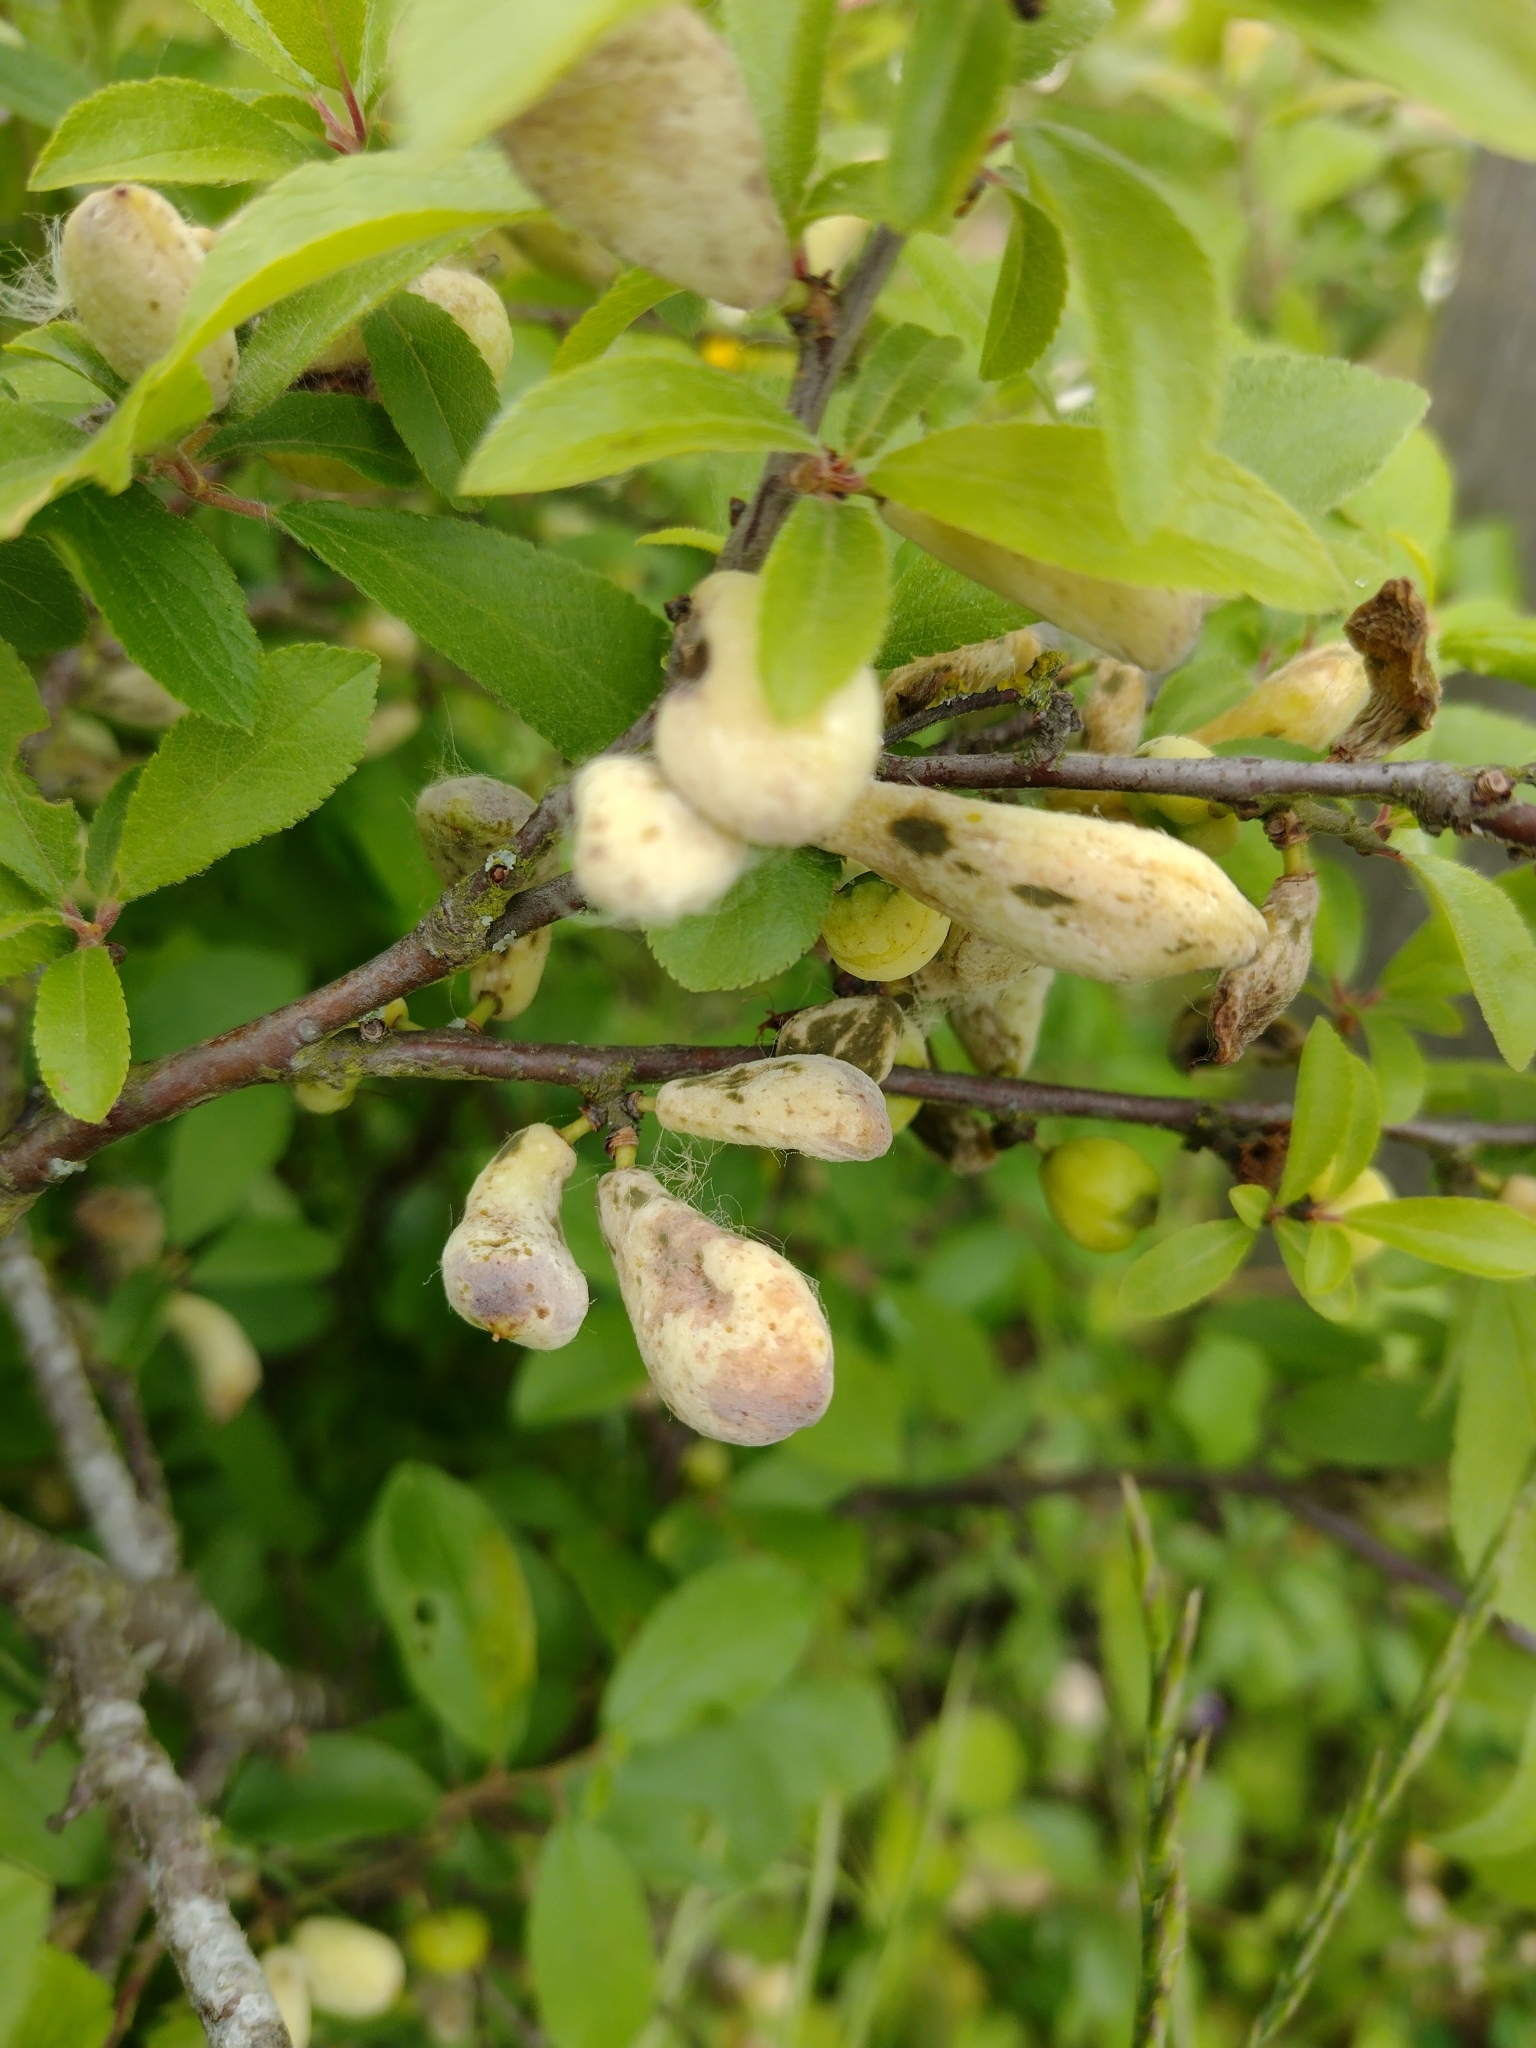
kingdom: Fungi
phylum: Ascomycota
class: Taphrinomycetes
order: Taphrinales
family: Taphrinaceae
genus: Taphrina
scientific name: Taphrina pruni
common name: Pocket plum
